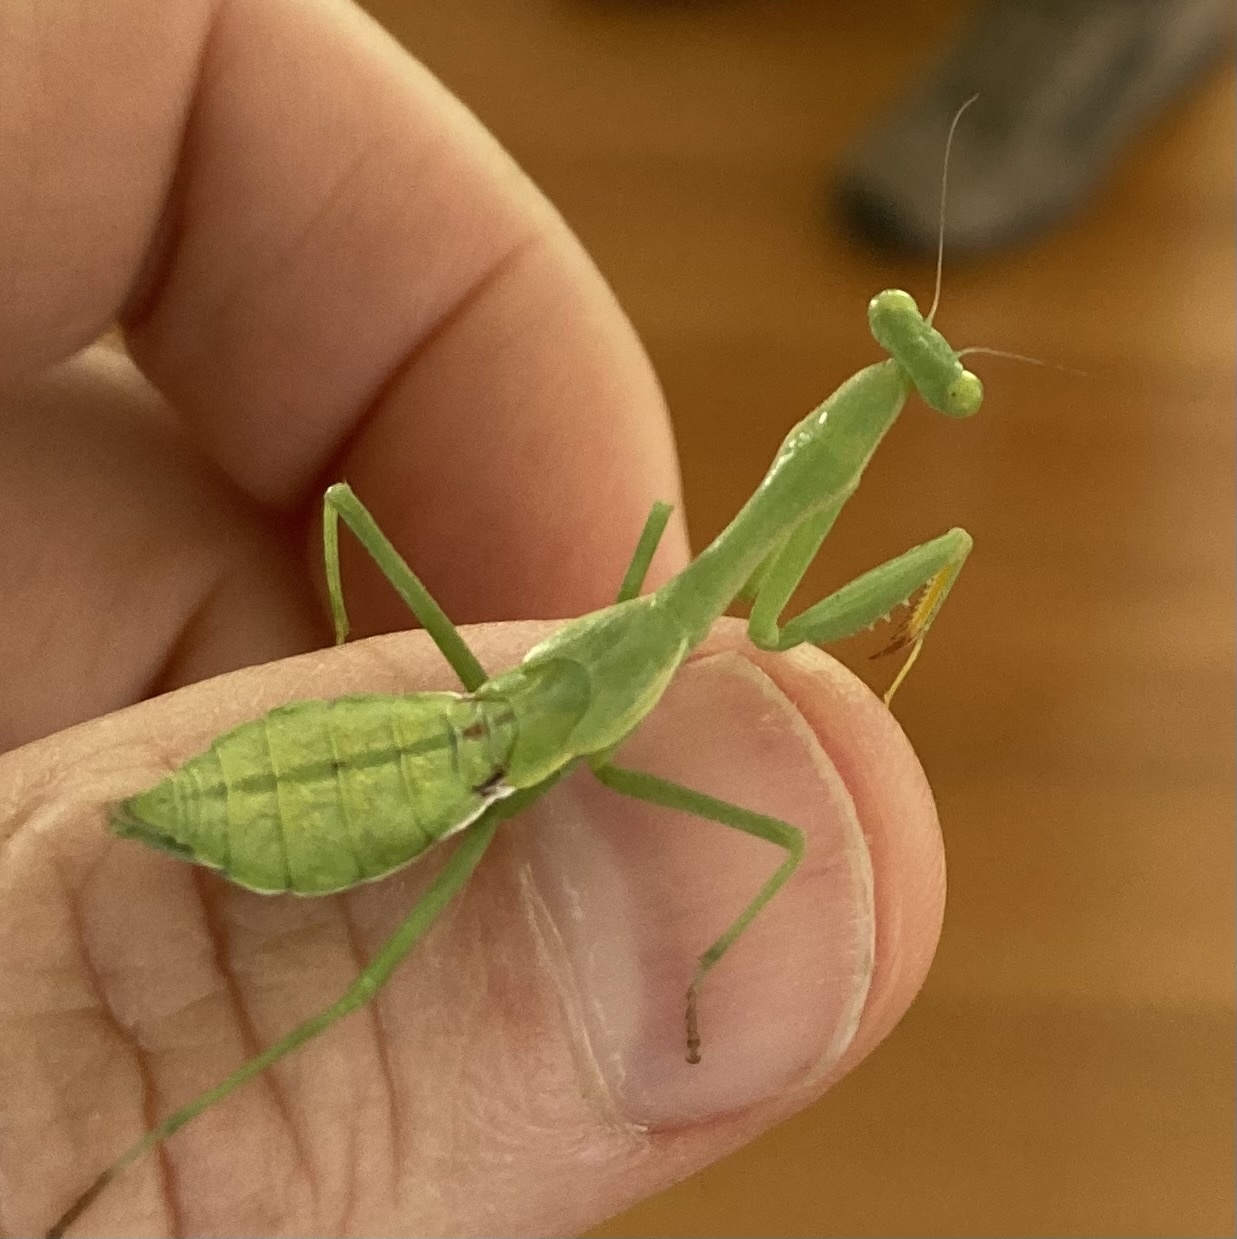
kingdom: Animalia
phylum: Arthropoda
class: Insecta
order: Mantodea
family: Miomantidae
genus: Miomantis
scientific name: Miomantis caffra
